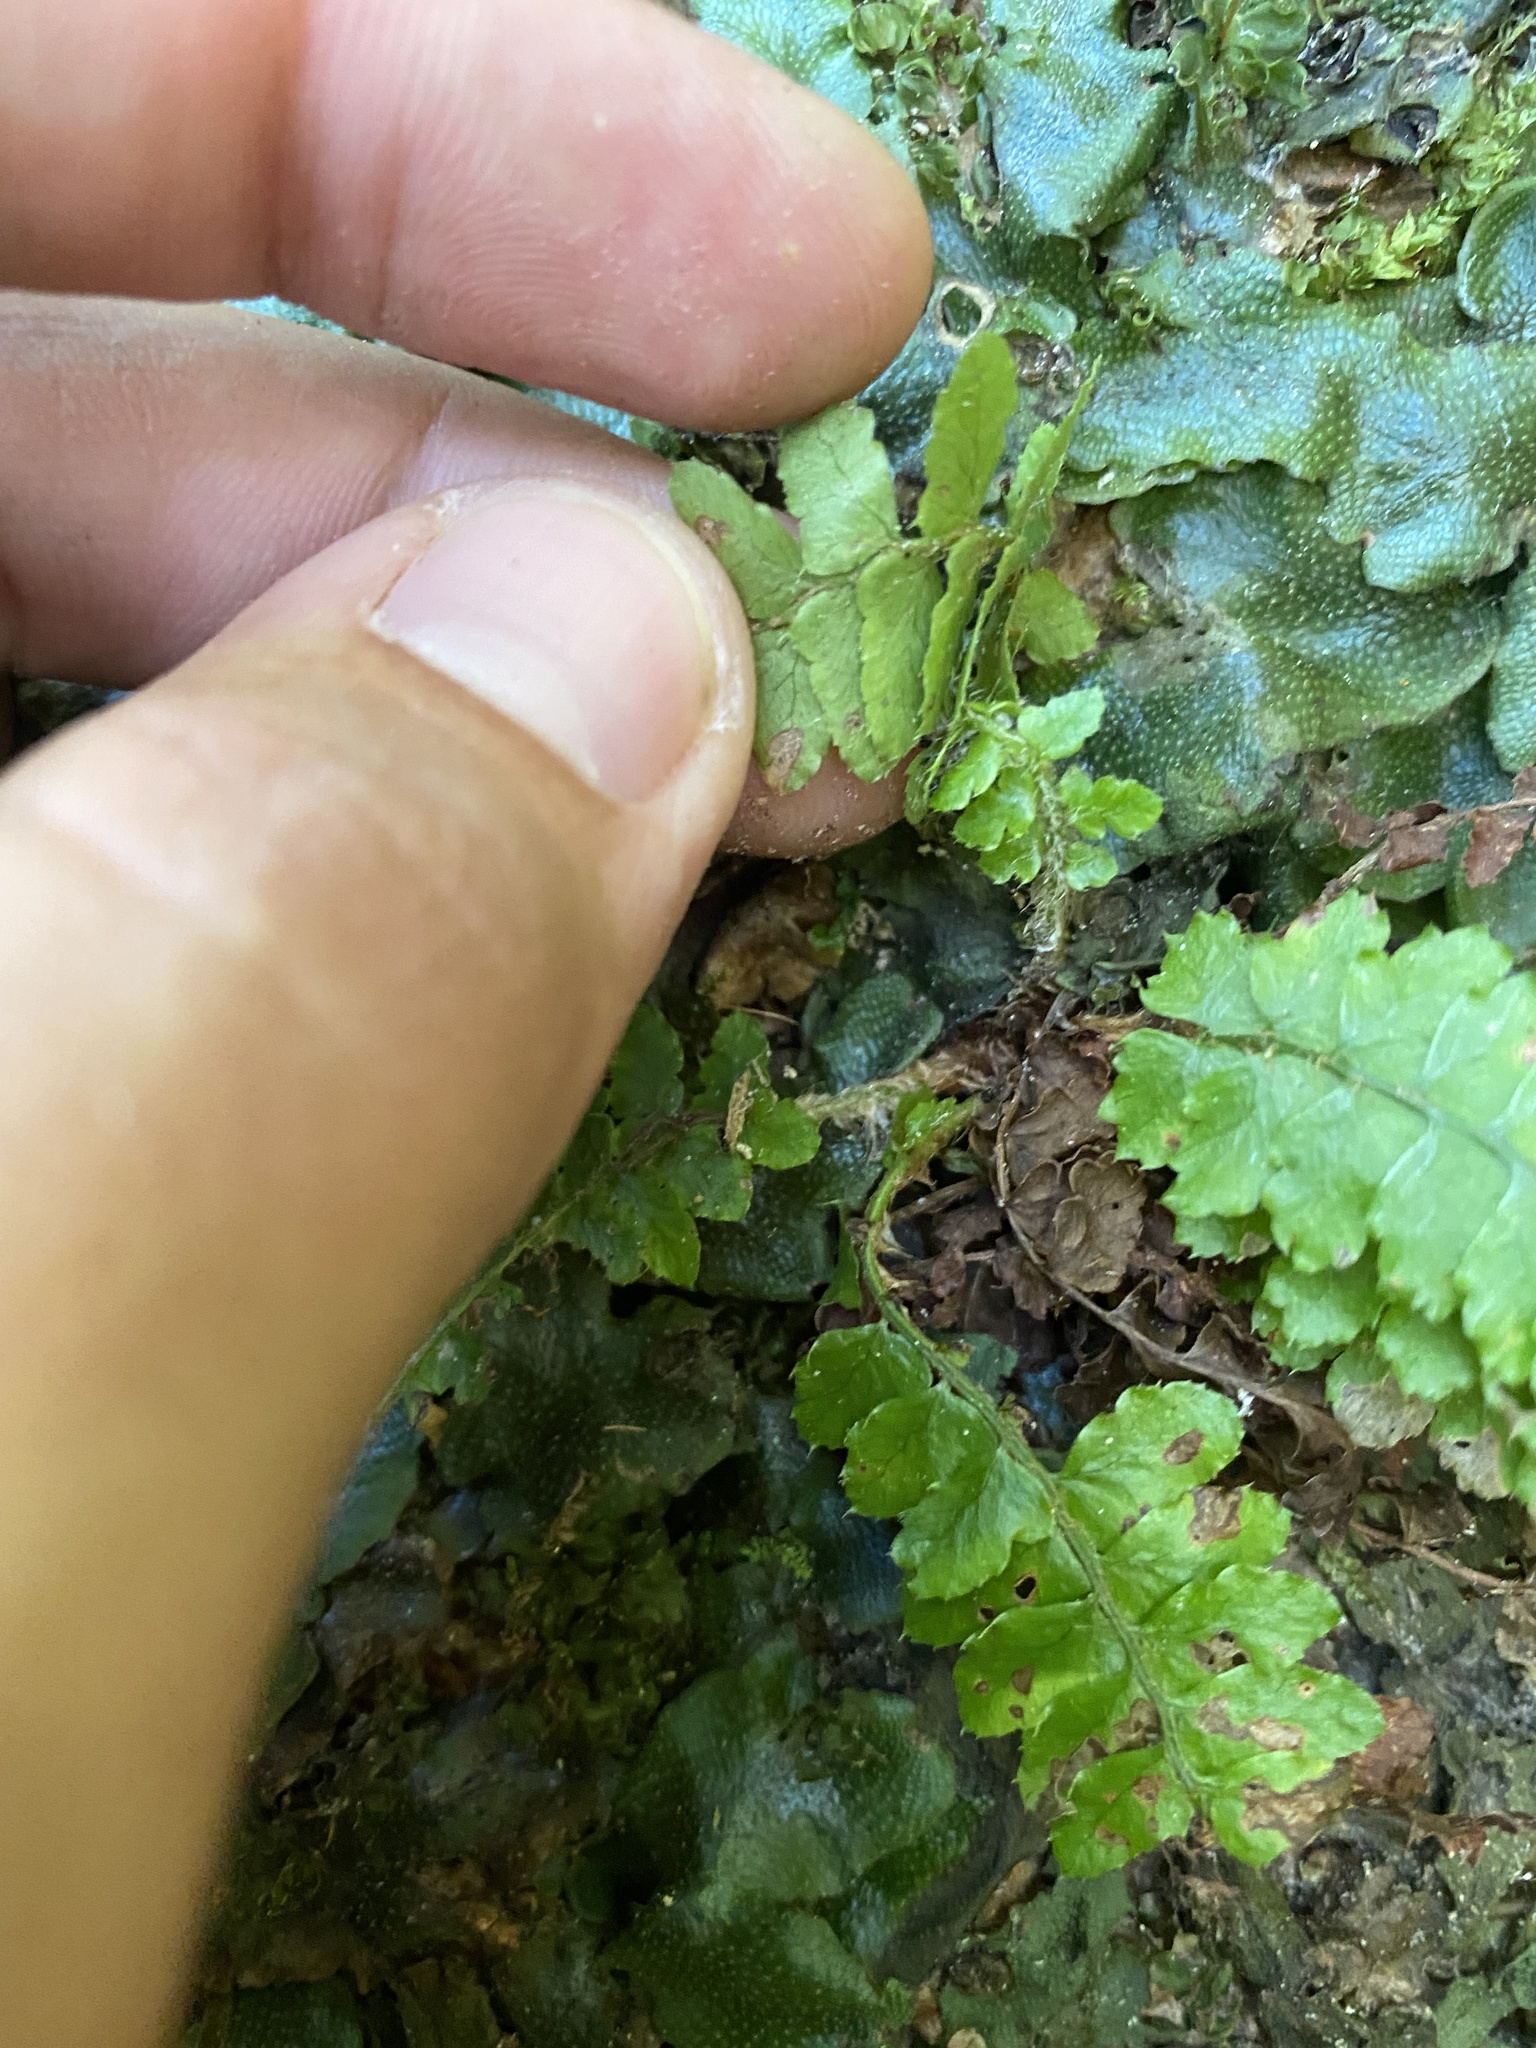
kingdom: Plantae
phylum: Tracheophyta
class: Polypodiopsida
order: Polypodiales
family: Dryopteridaceae
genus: Polystichum
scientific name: Polystichum braunii
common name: Braun's holly fern
